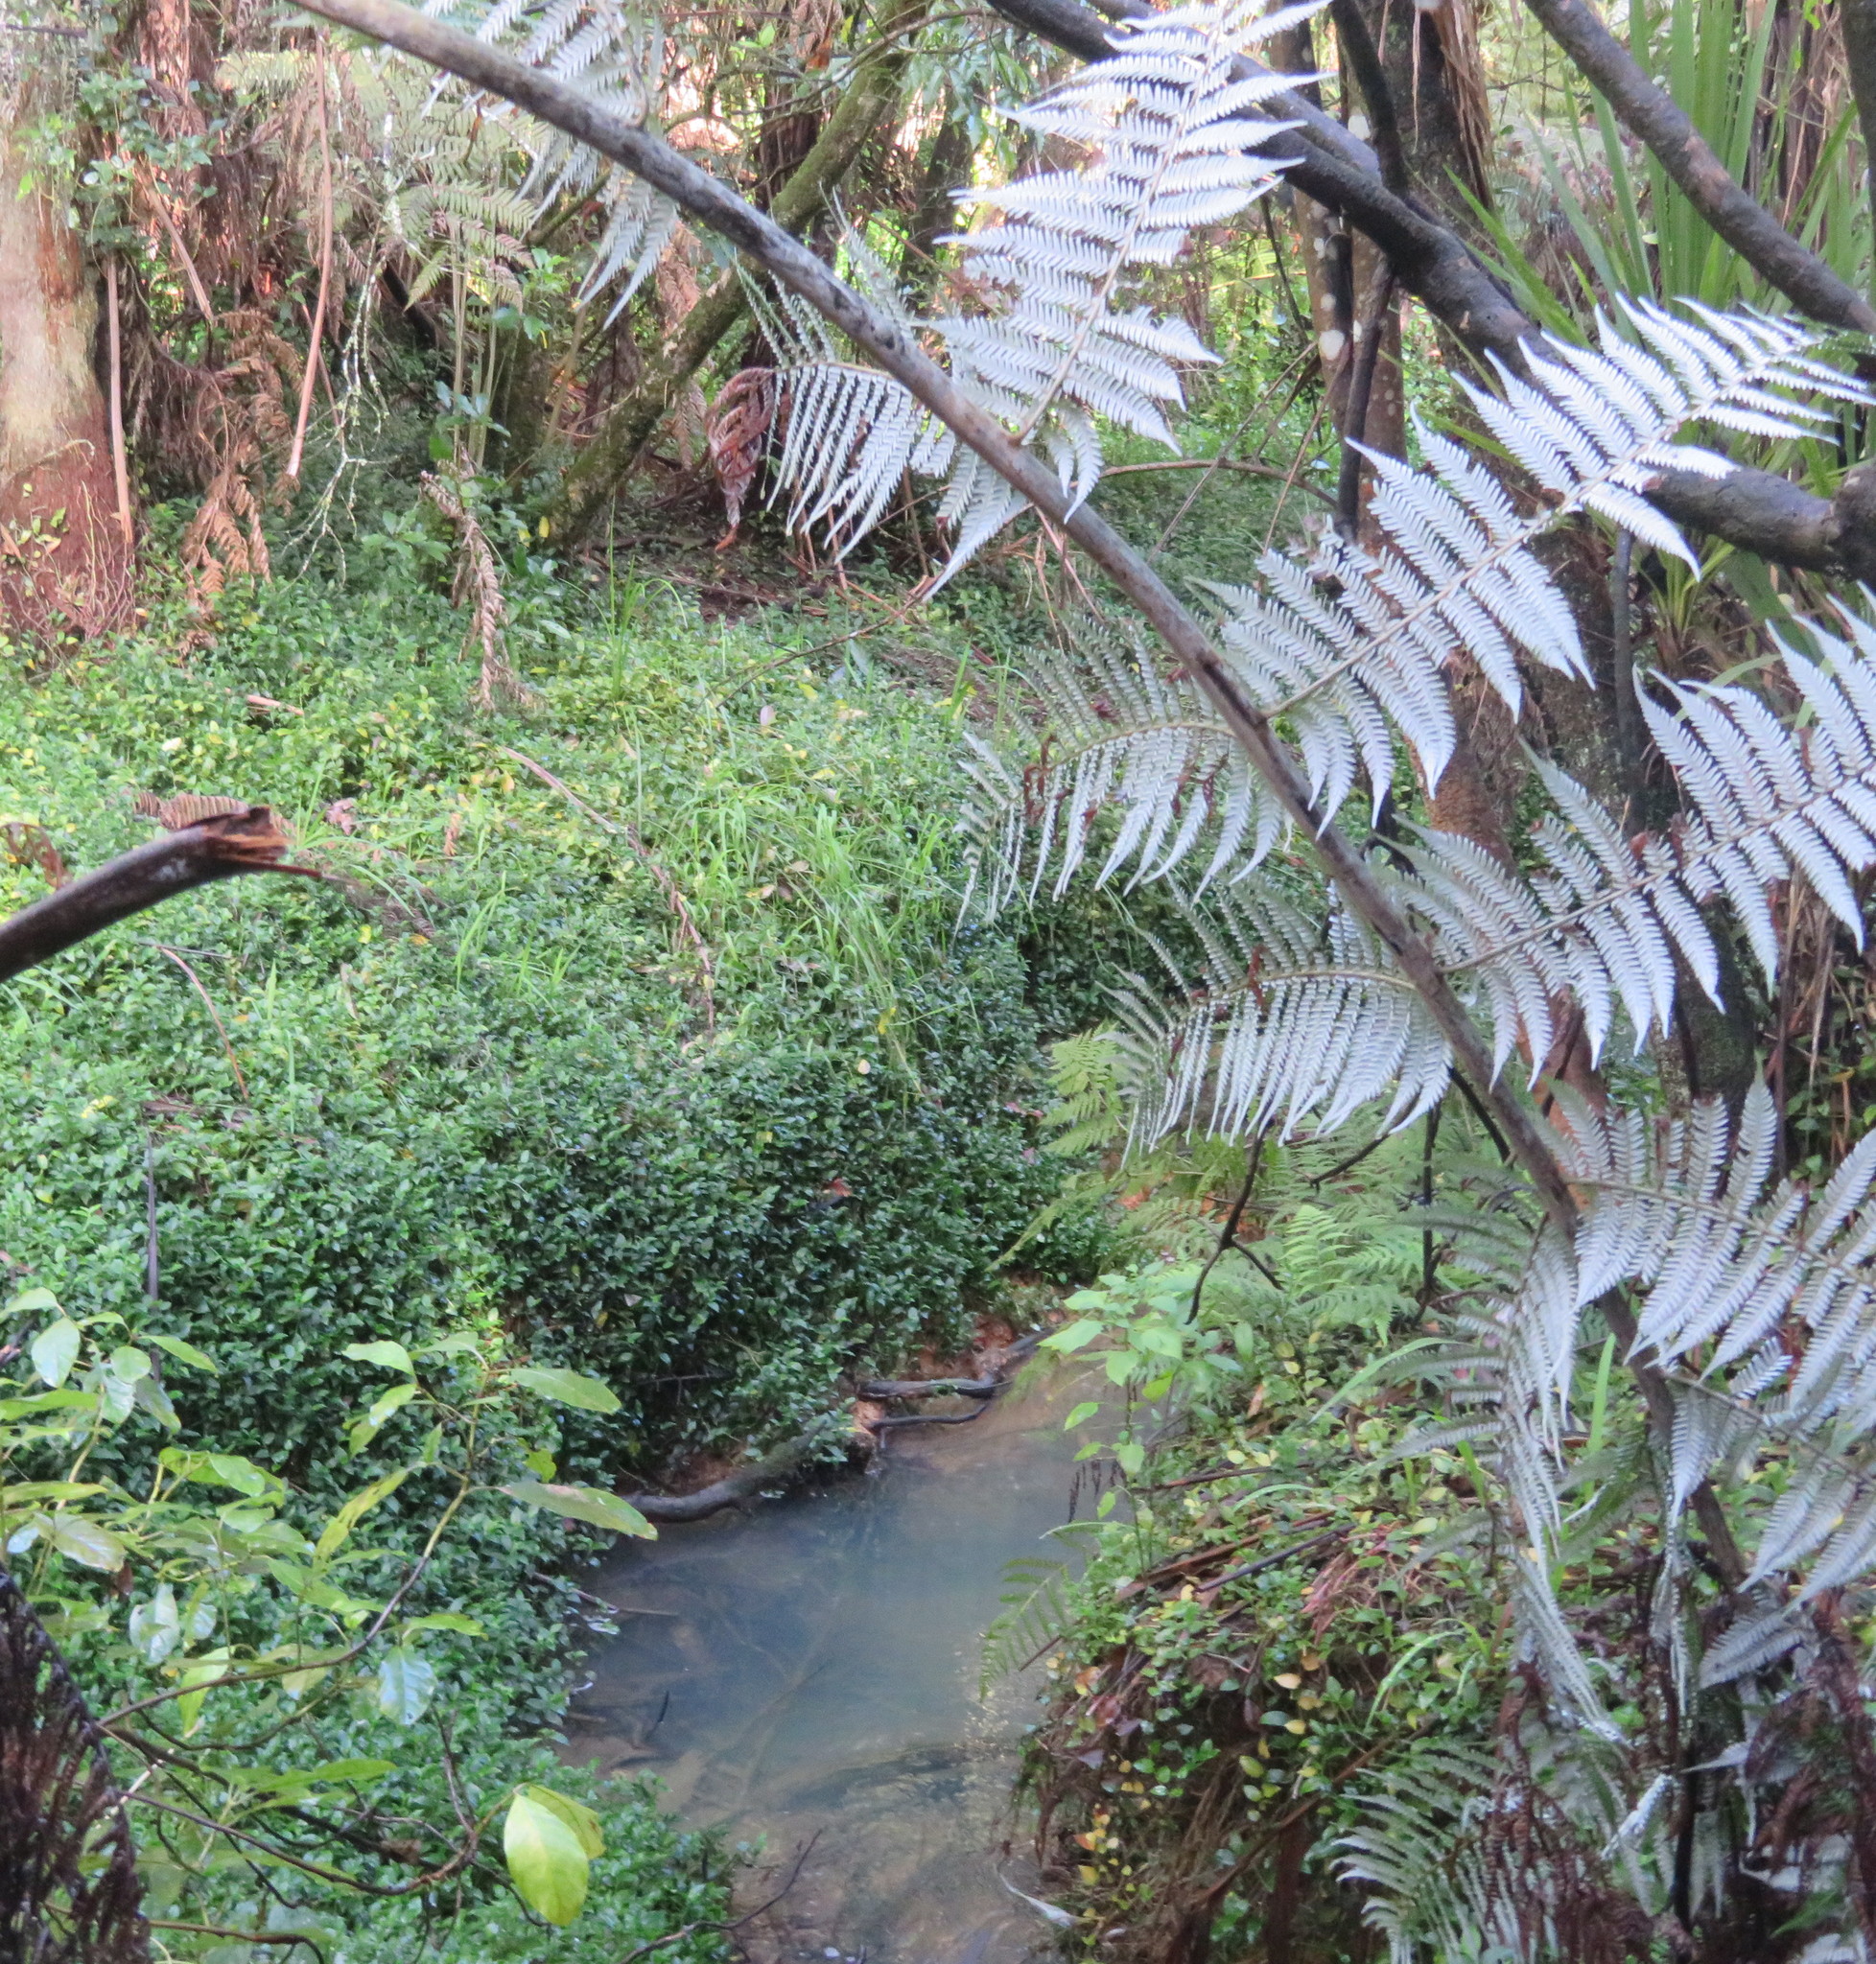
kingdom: Plantae
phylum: Tracheophyta
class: Liliopsida
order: Commelinales
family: Commelinaceae
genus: Tradescantia
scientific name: Tradescantia fluminensis
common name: Wandering-jew
